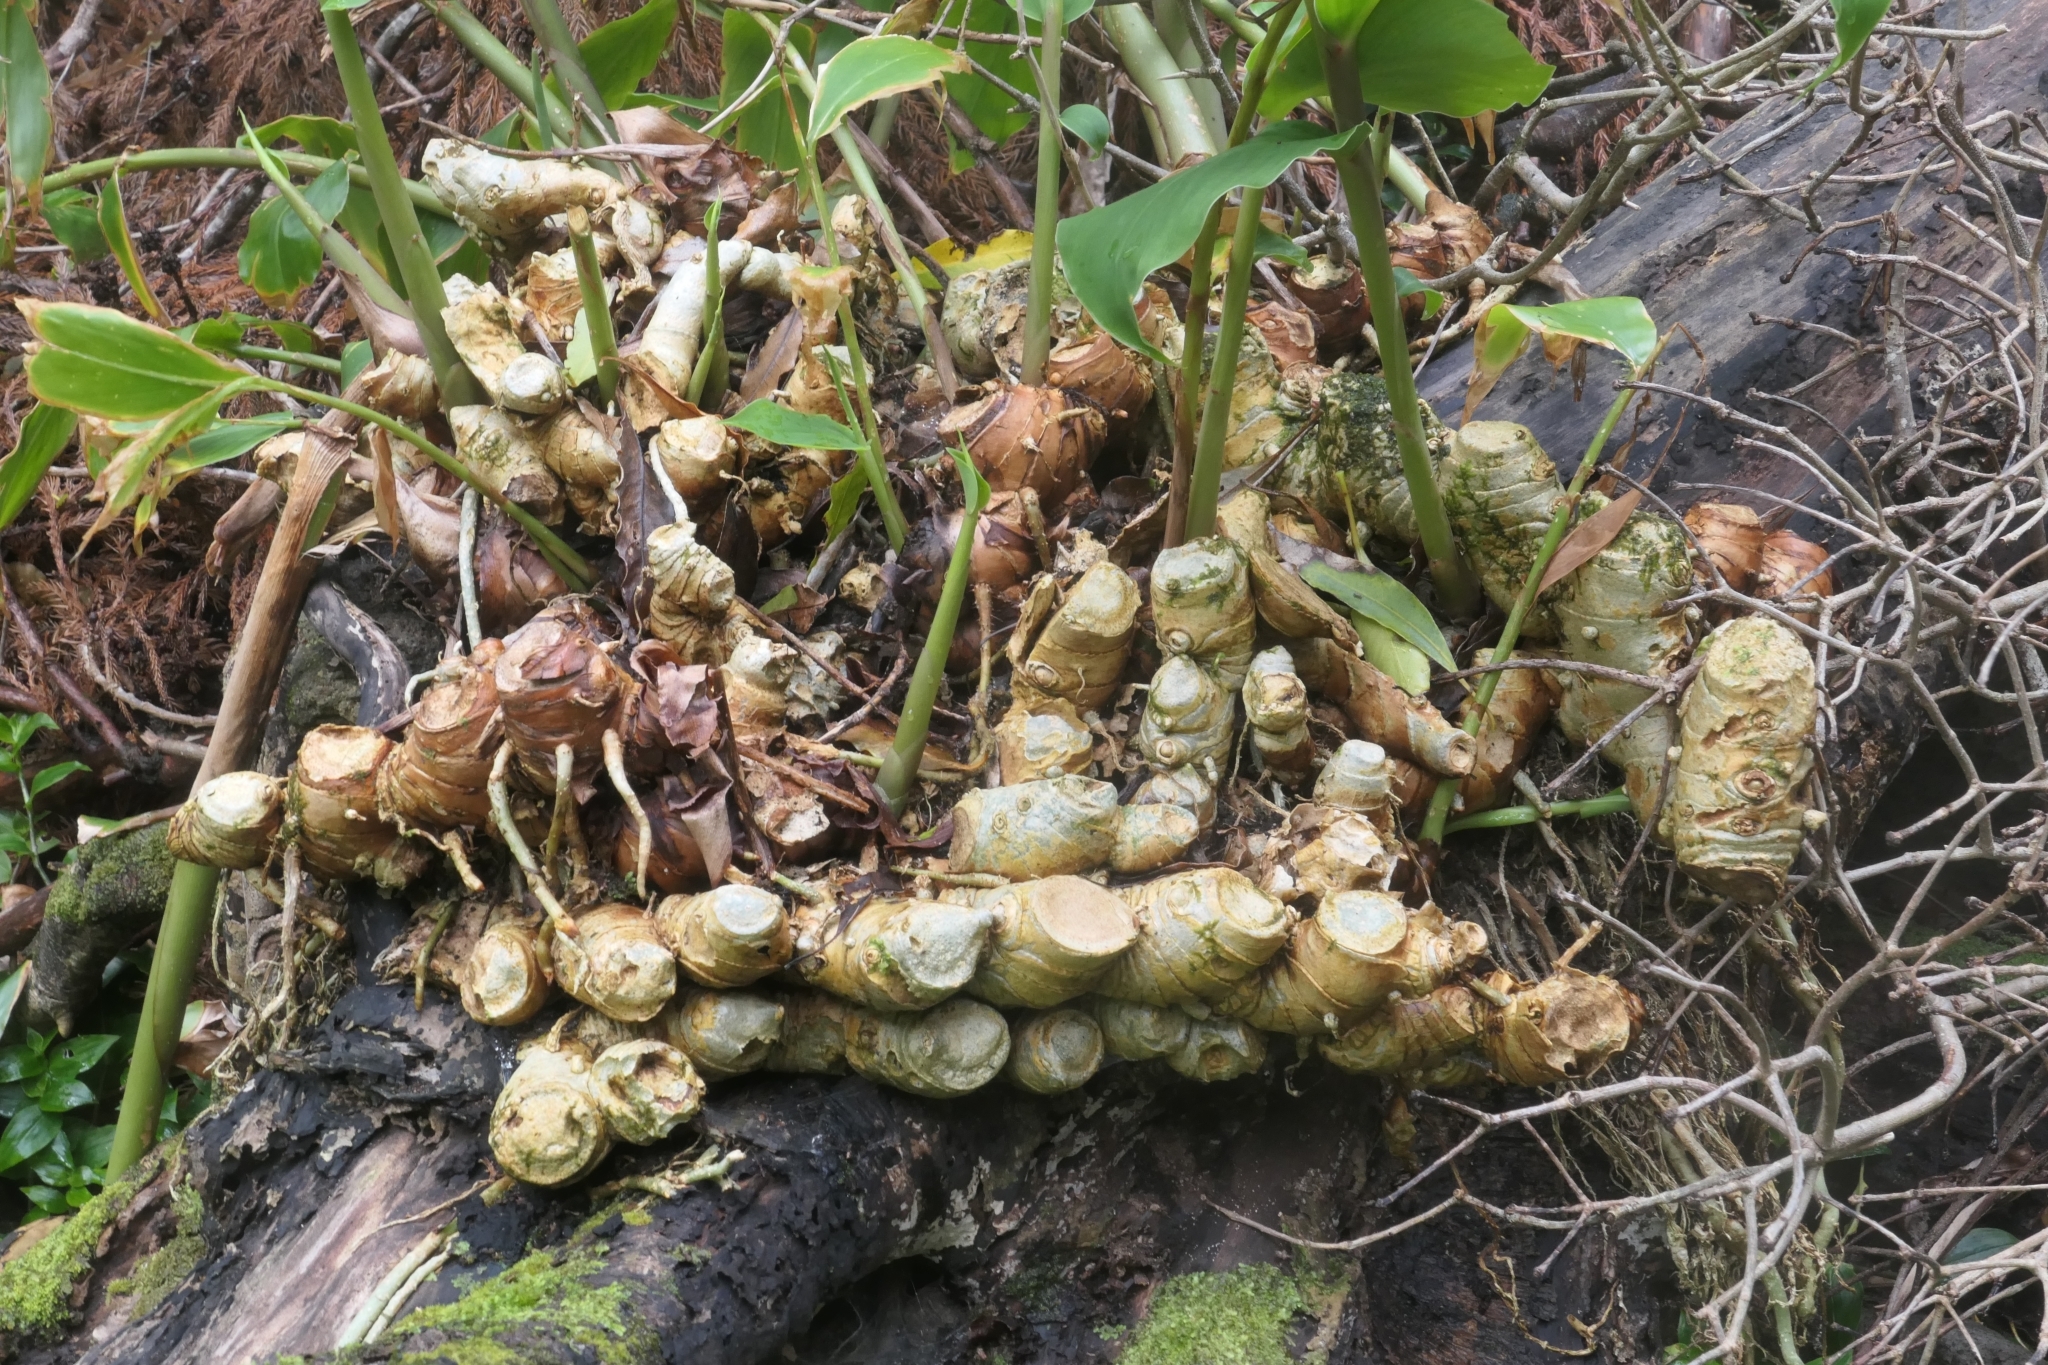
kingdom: Plantae
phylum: Tracheophyta
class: Liliopsida
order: Zingiberales
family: Zingiberaceae
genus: Hedychium
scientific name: Hedychium gardnerianum
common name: Himalayan ginger
